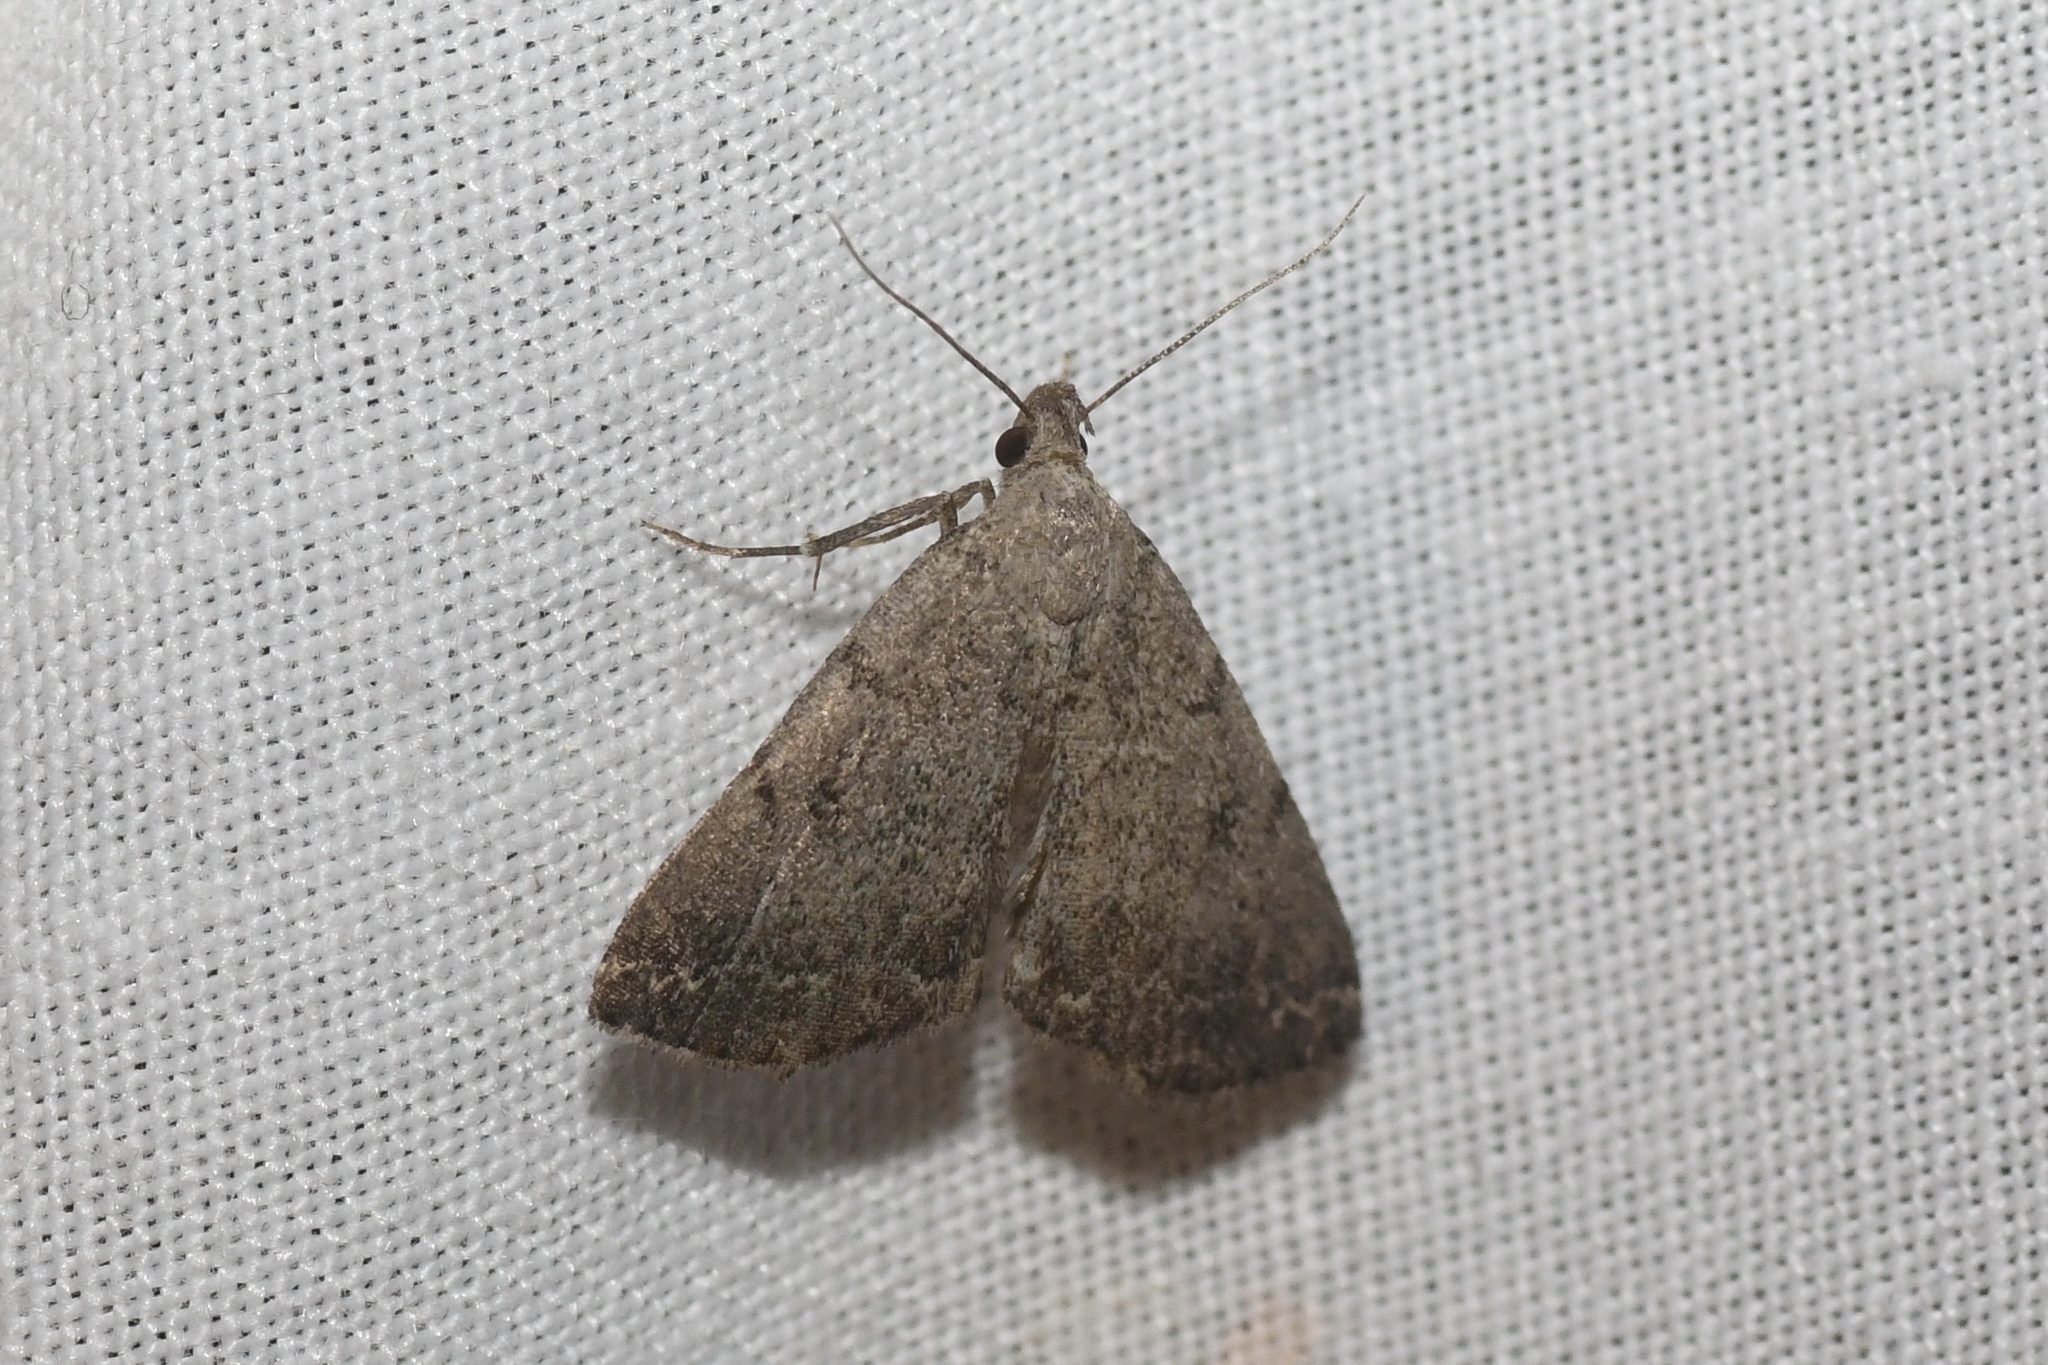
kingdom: Animalia
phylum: Arthropoda
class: Insecta
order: Lepidoptera
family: Erebidae
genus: Zanclognatha
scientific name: Zanclognatha theralis
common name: Flagged fan-foot
